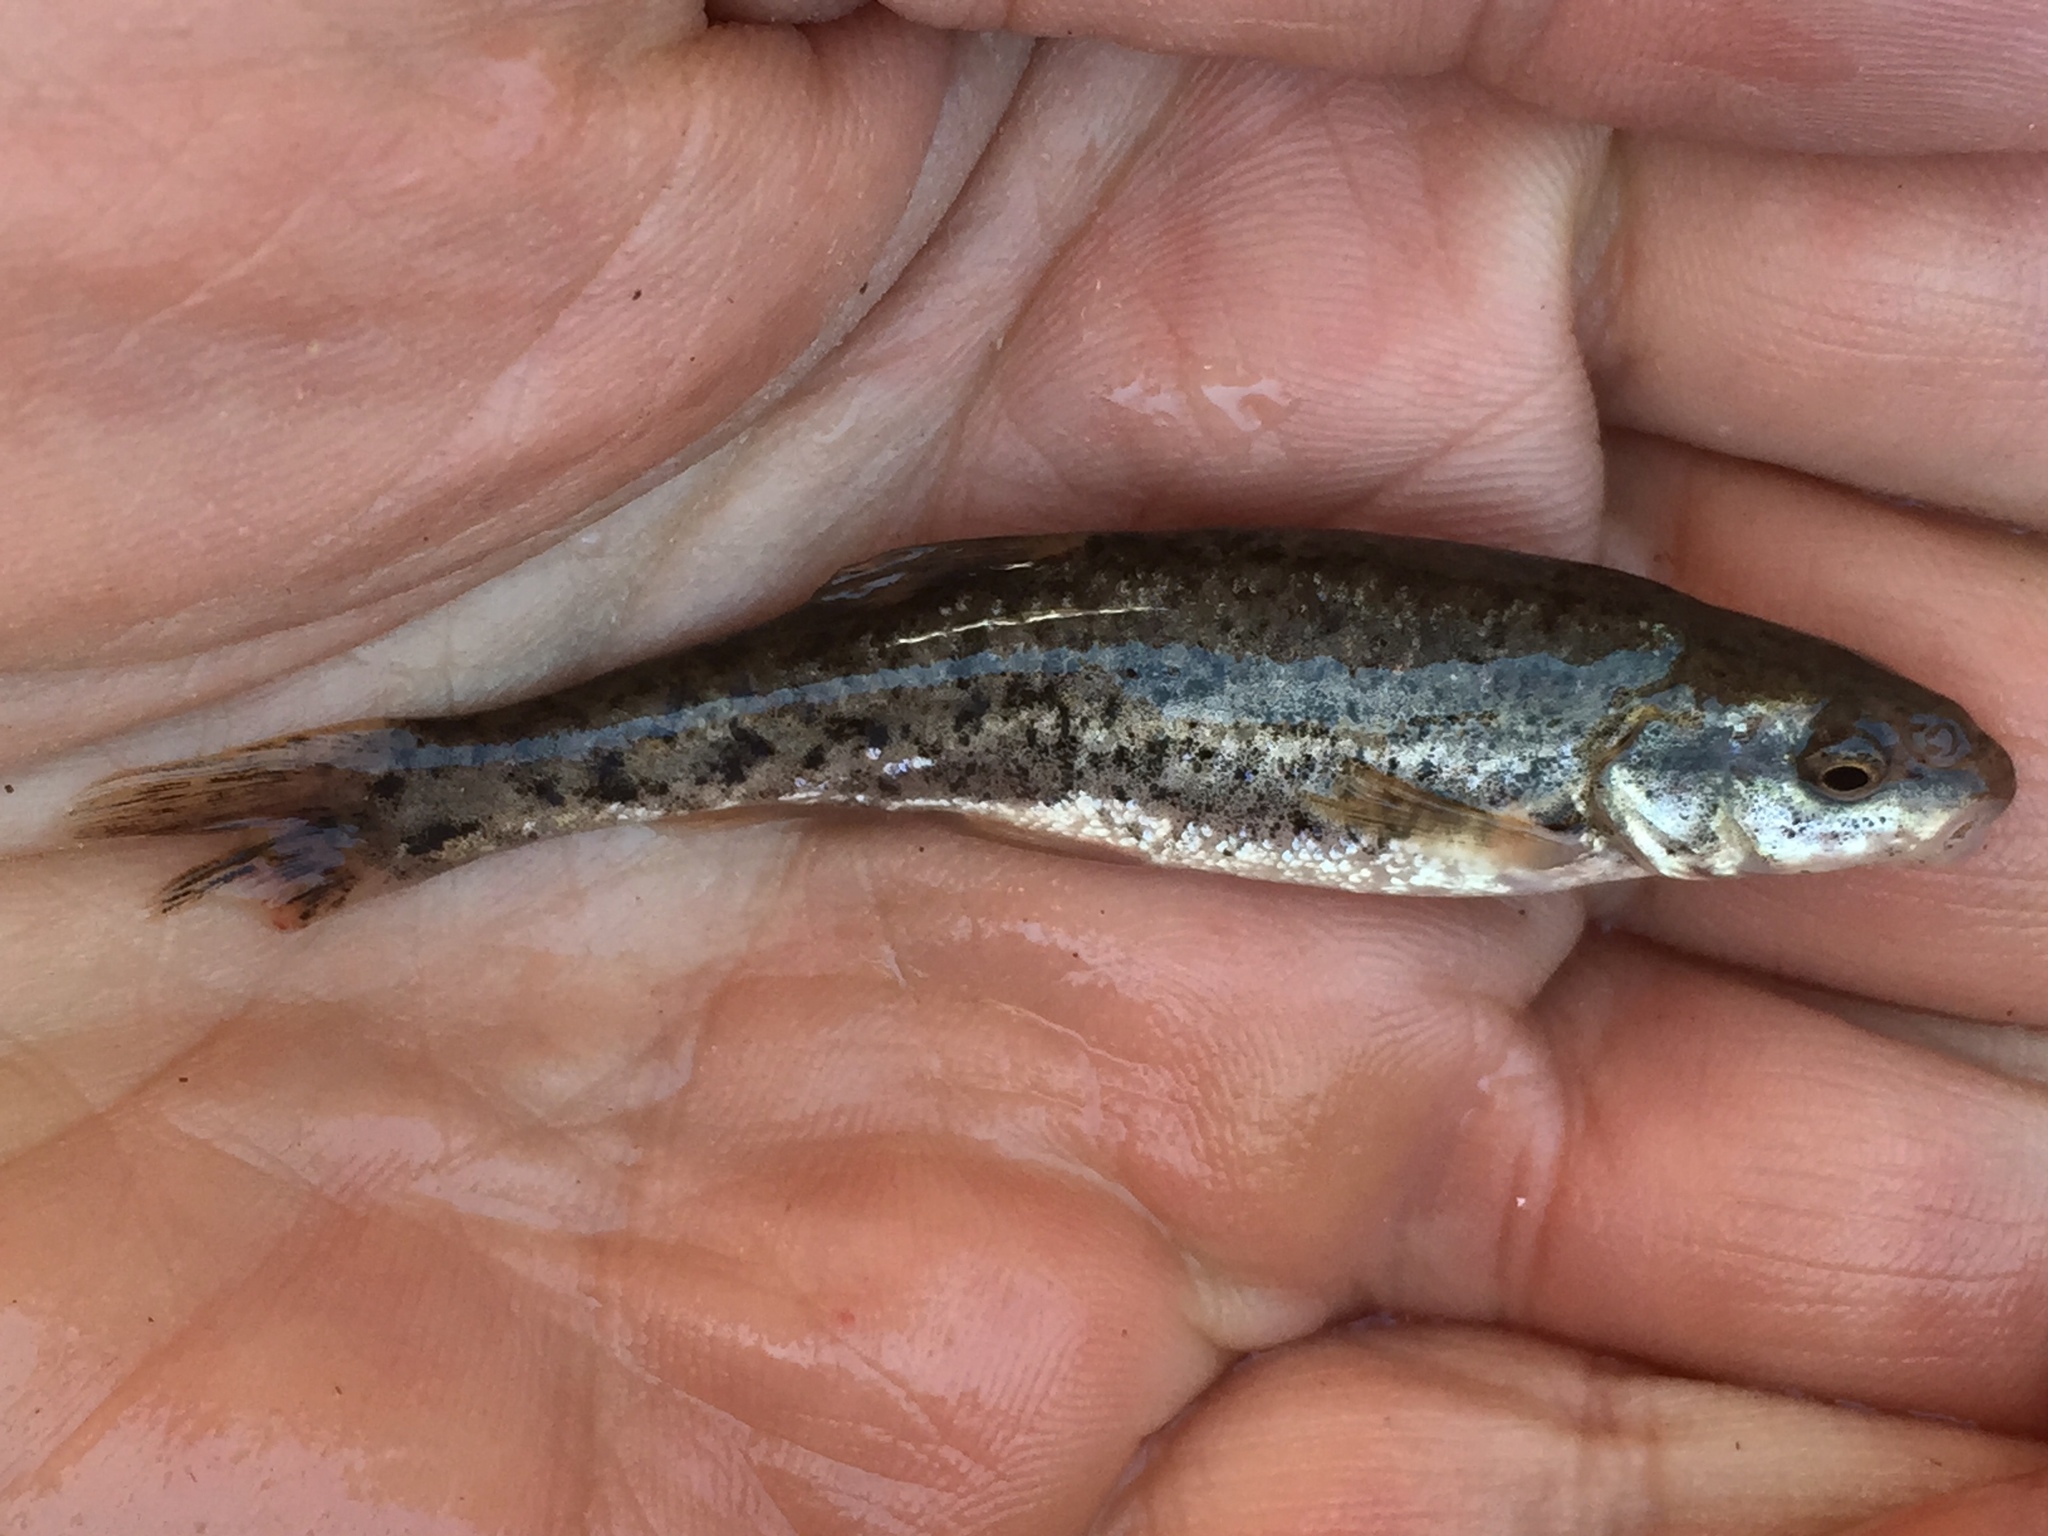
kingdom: Animalia
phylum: Chordata
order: Cypriniformes
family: Cyprinidae
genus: Rhinichthys
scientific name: Rhinichthys osculus
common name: Speckled dace
